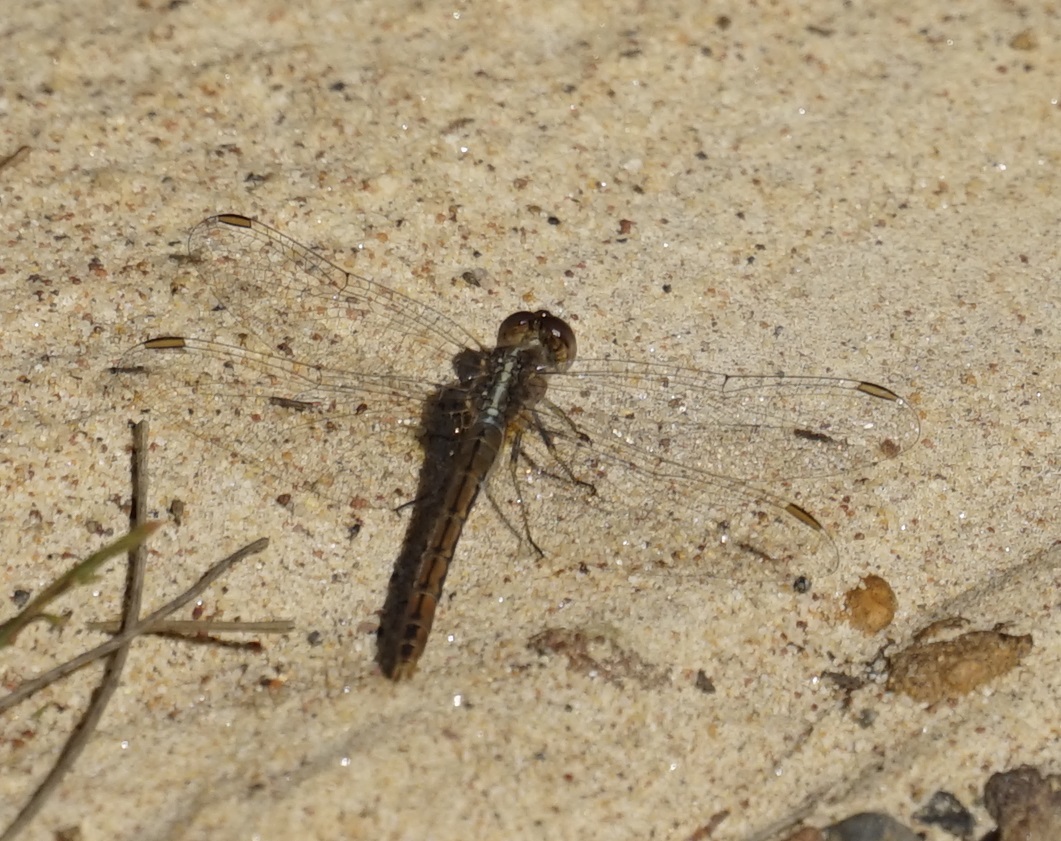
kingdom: Animalia
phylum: Arthropoda
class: Insecta
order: Odonata
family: Libellulidae
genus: Diplacodes
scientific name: Diplacodes bipunctata
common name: Red percher dragonfly
